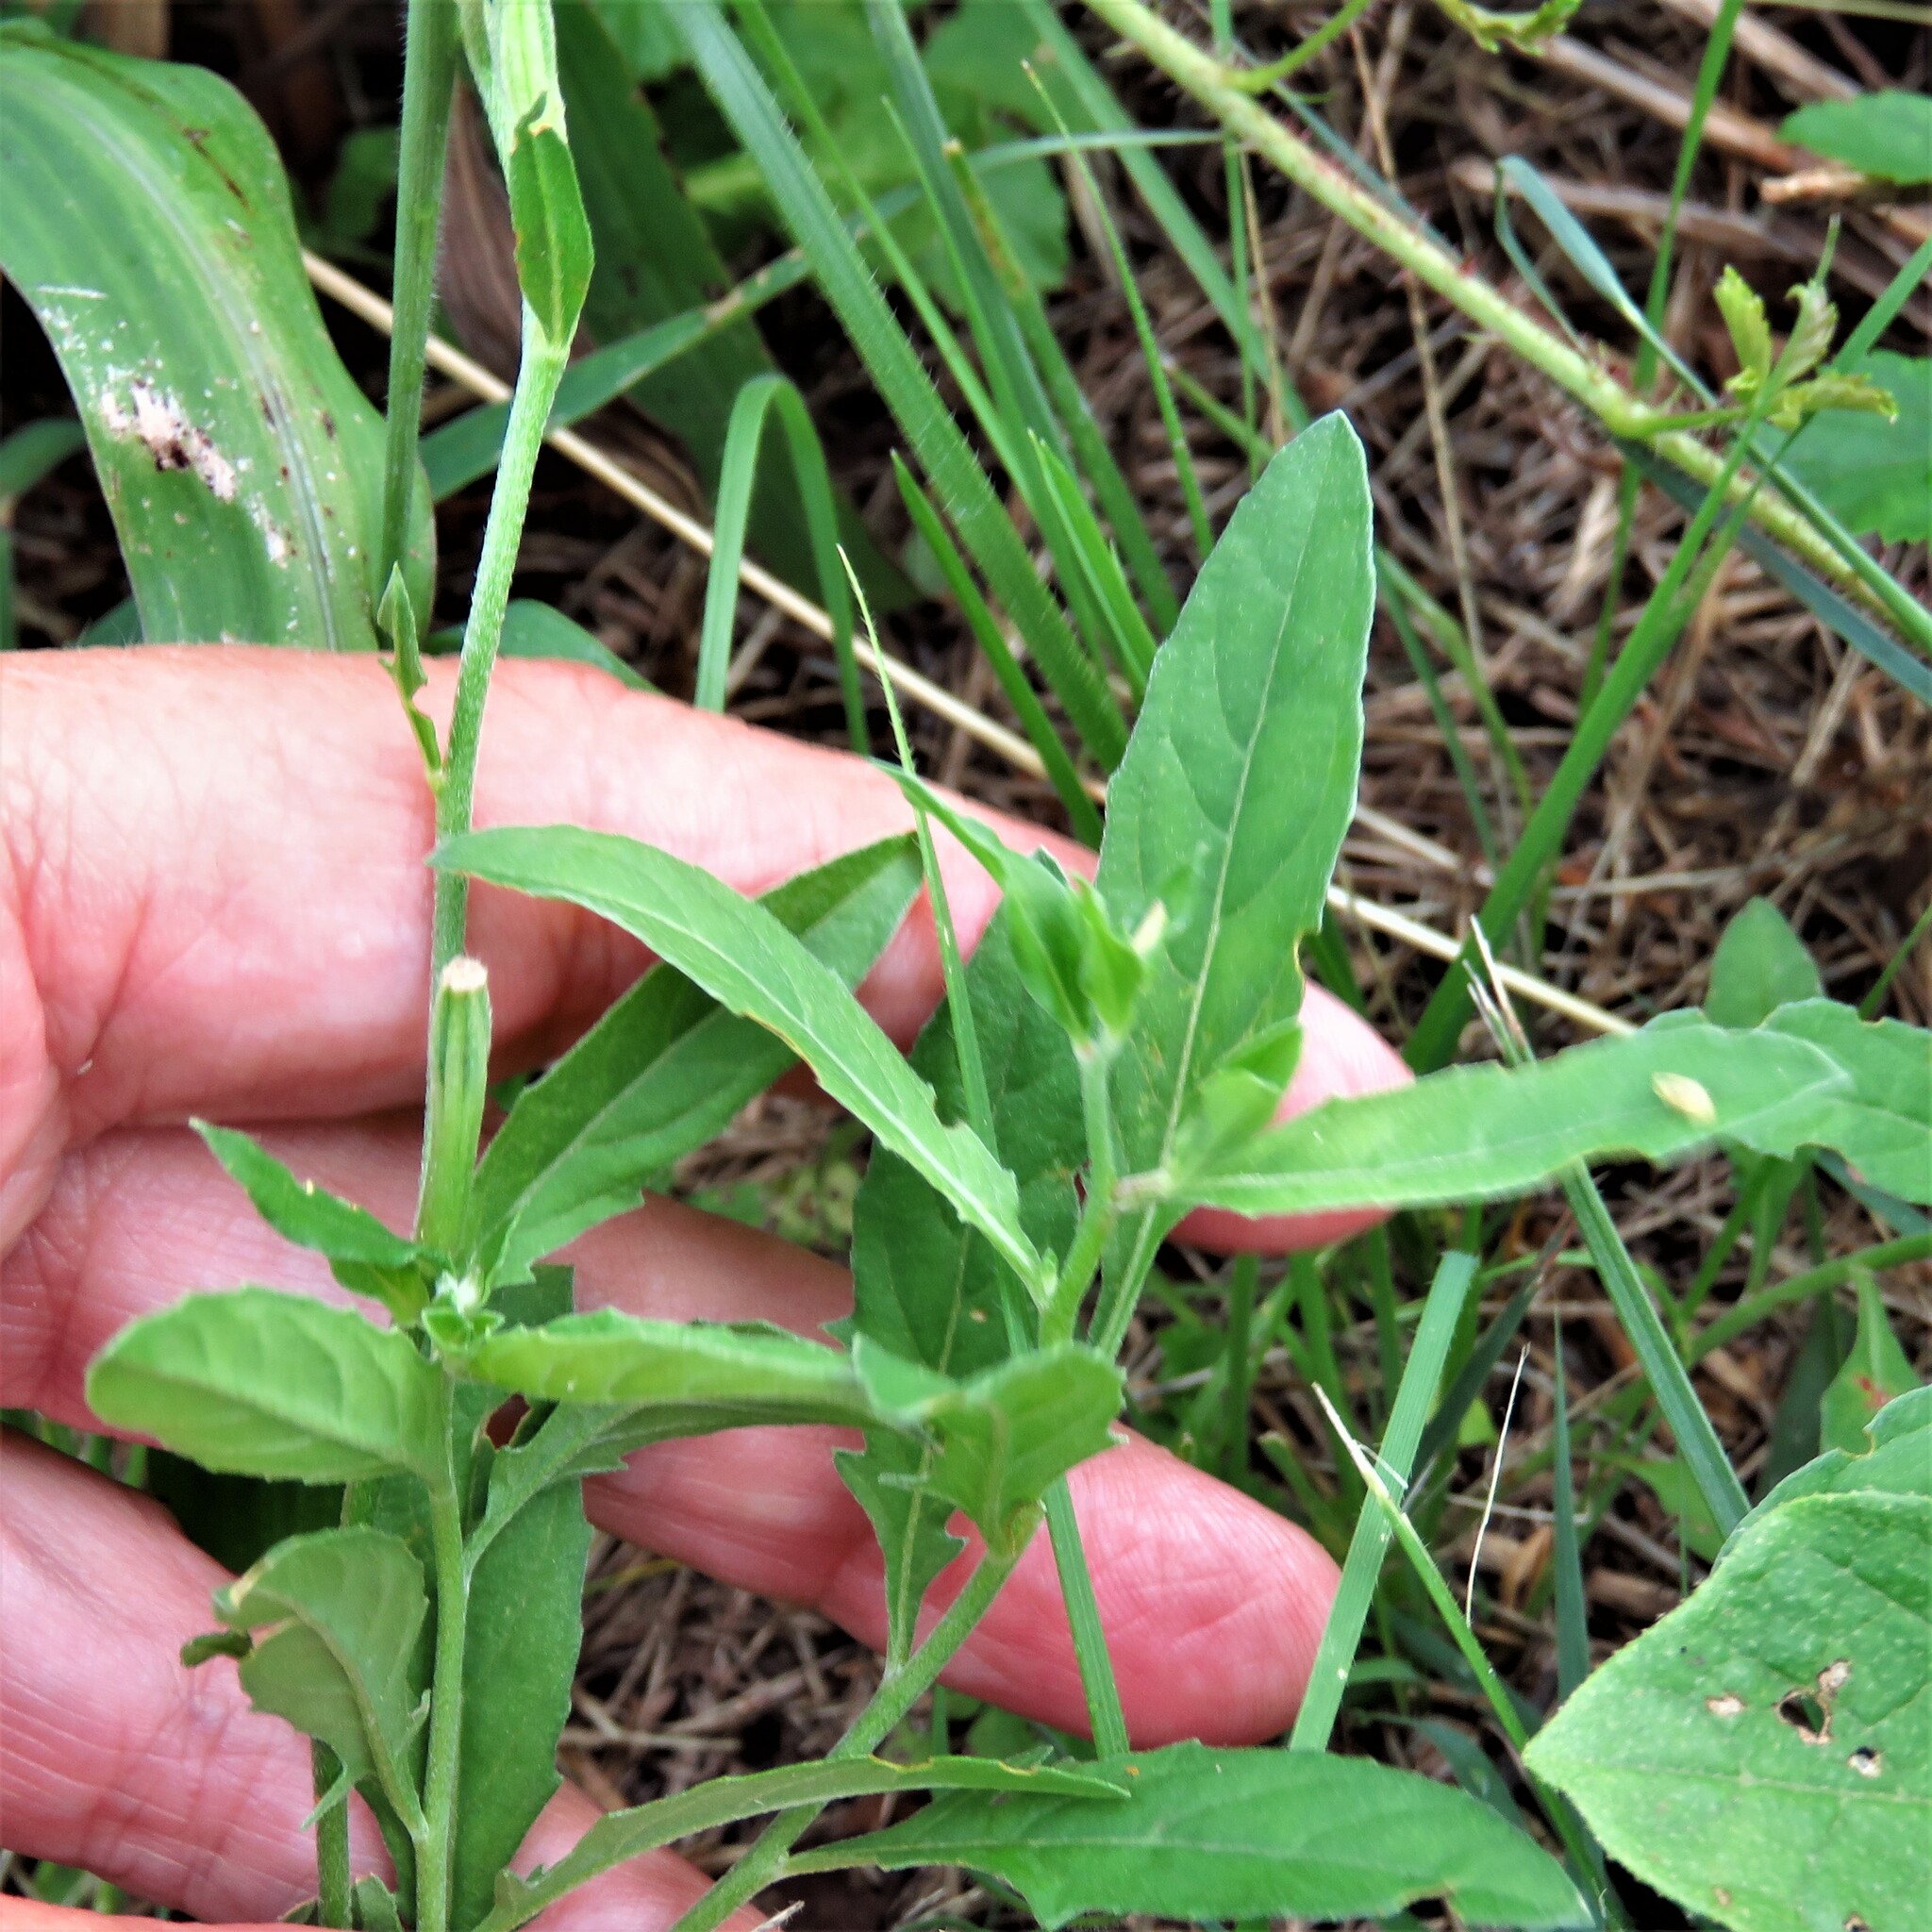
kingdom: Plantae
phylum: Tracheophyta
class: Magnoliopsida
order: Myrtales
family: Onagraceae
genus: Oenothera
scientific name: Oenothera speciosa
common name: White evening-primrose
